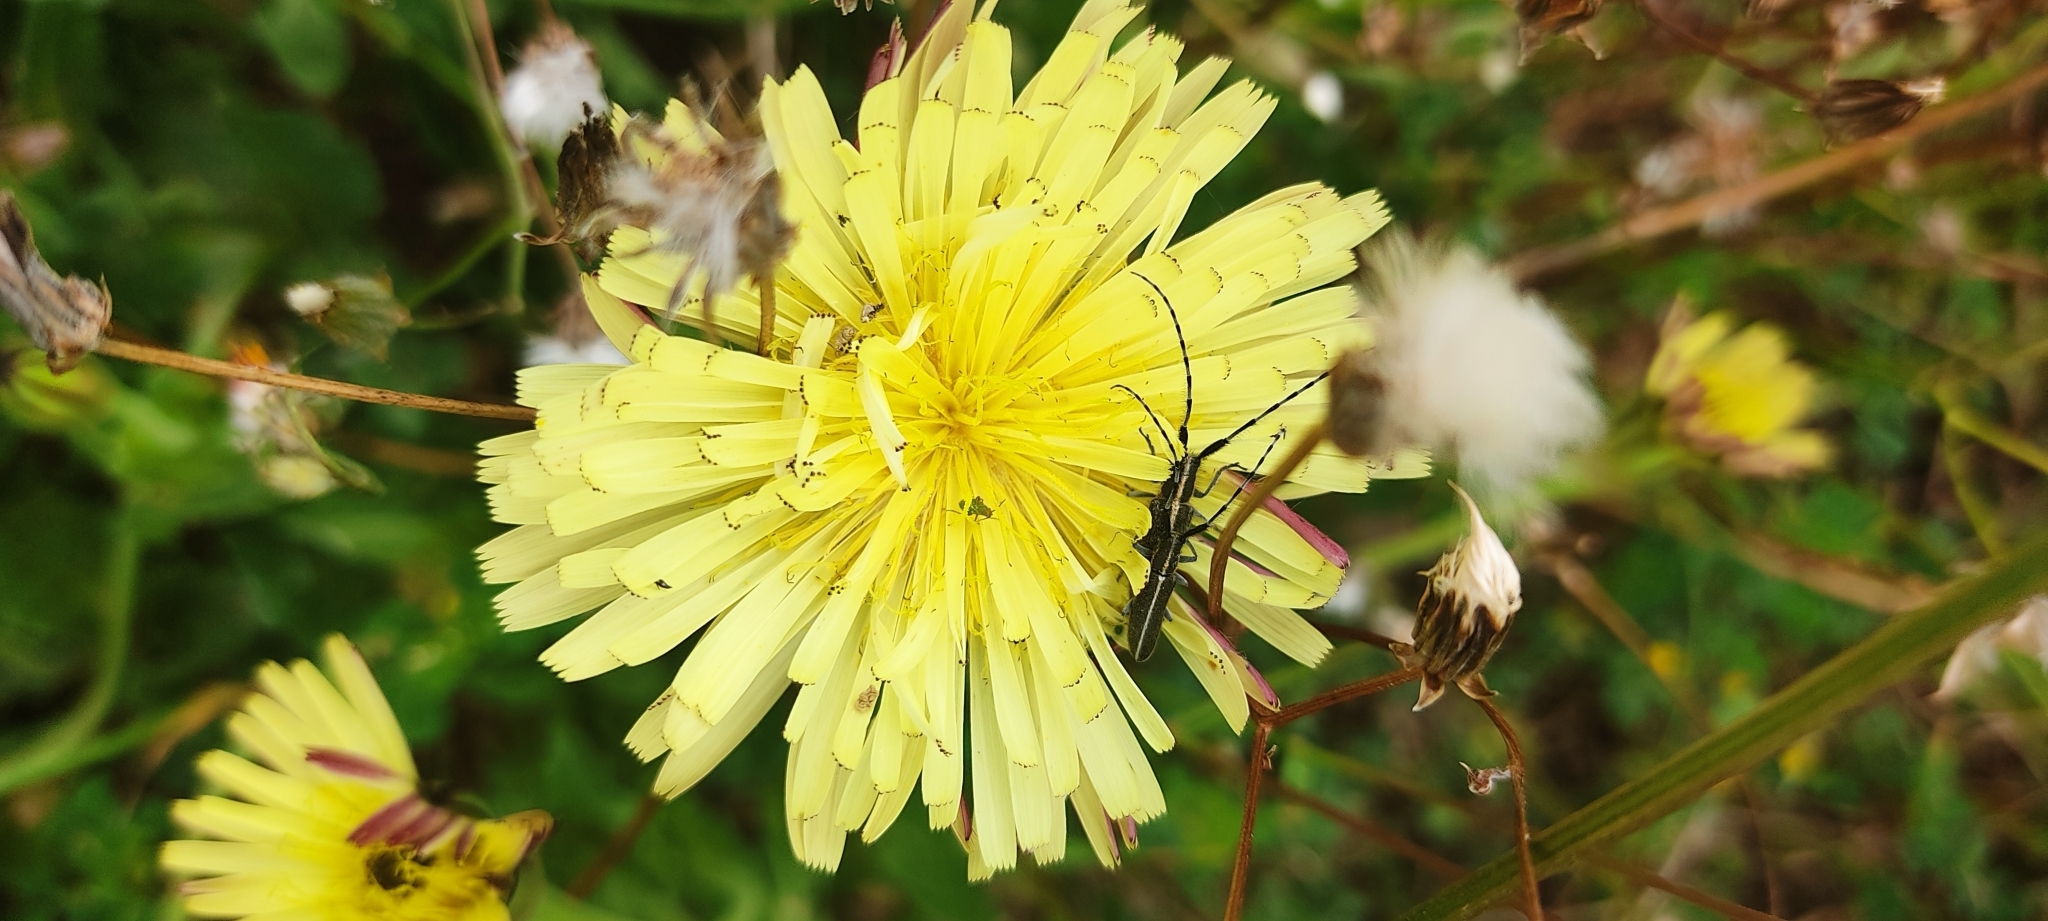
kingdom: Animalia
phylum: Arthropoda
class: Insecta
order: Coleoptera
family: Cerambycidae
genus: Agapanthia
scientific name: Agapanthia cardui
